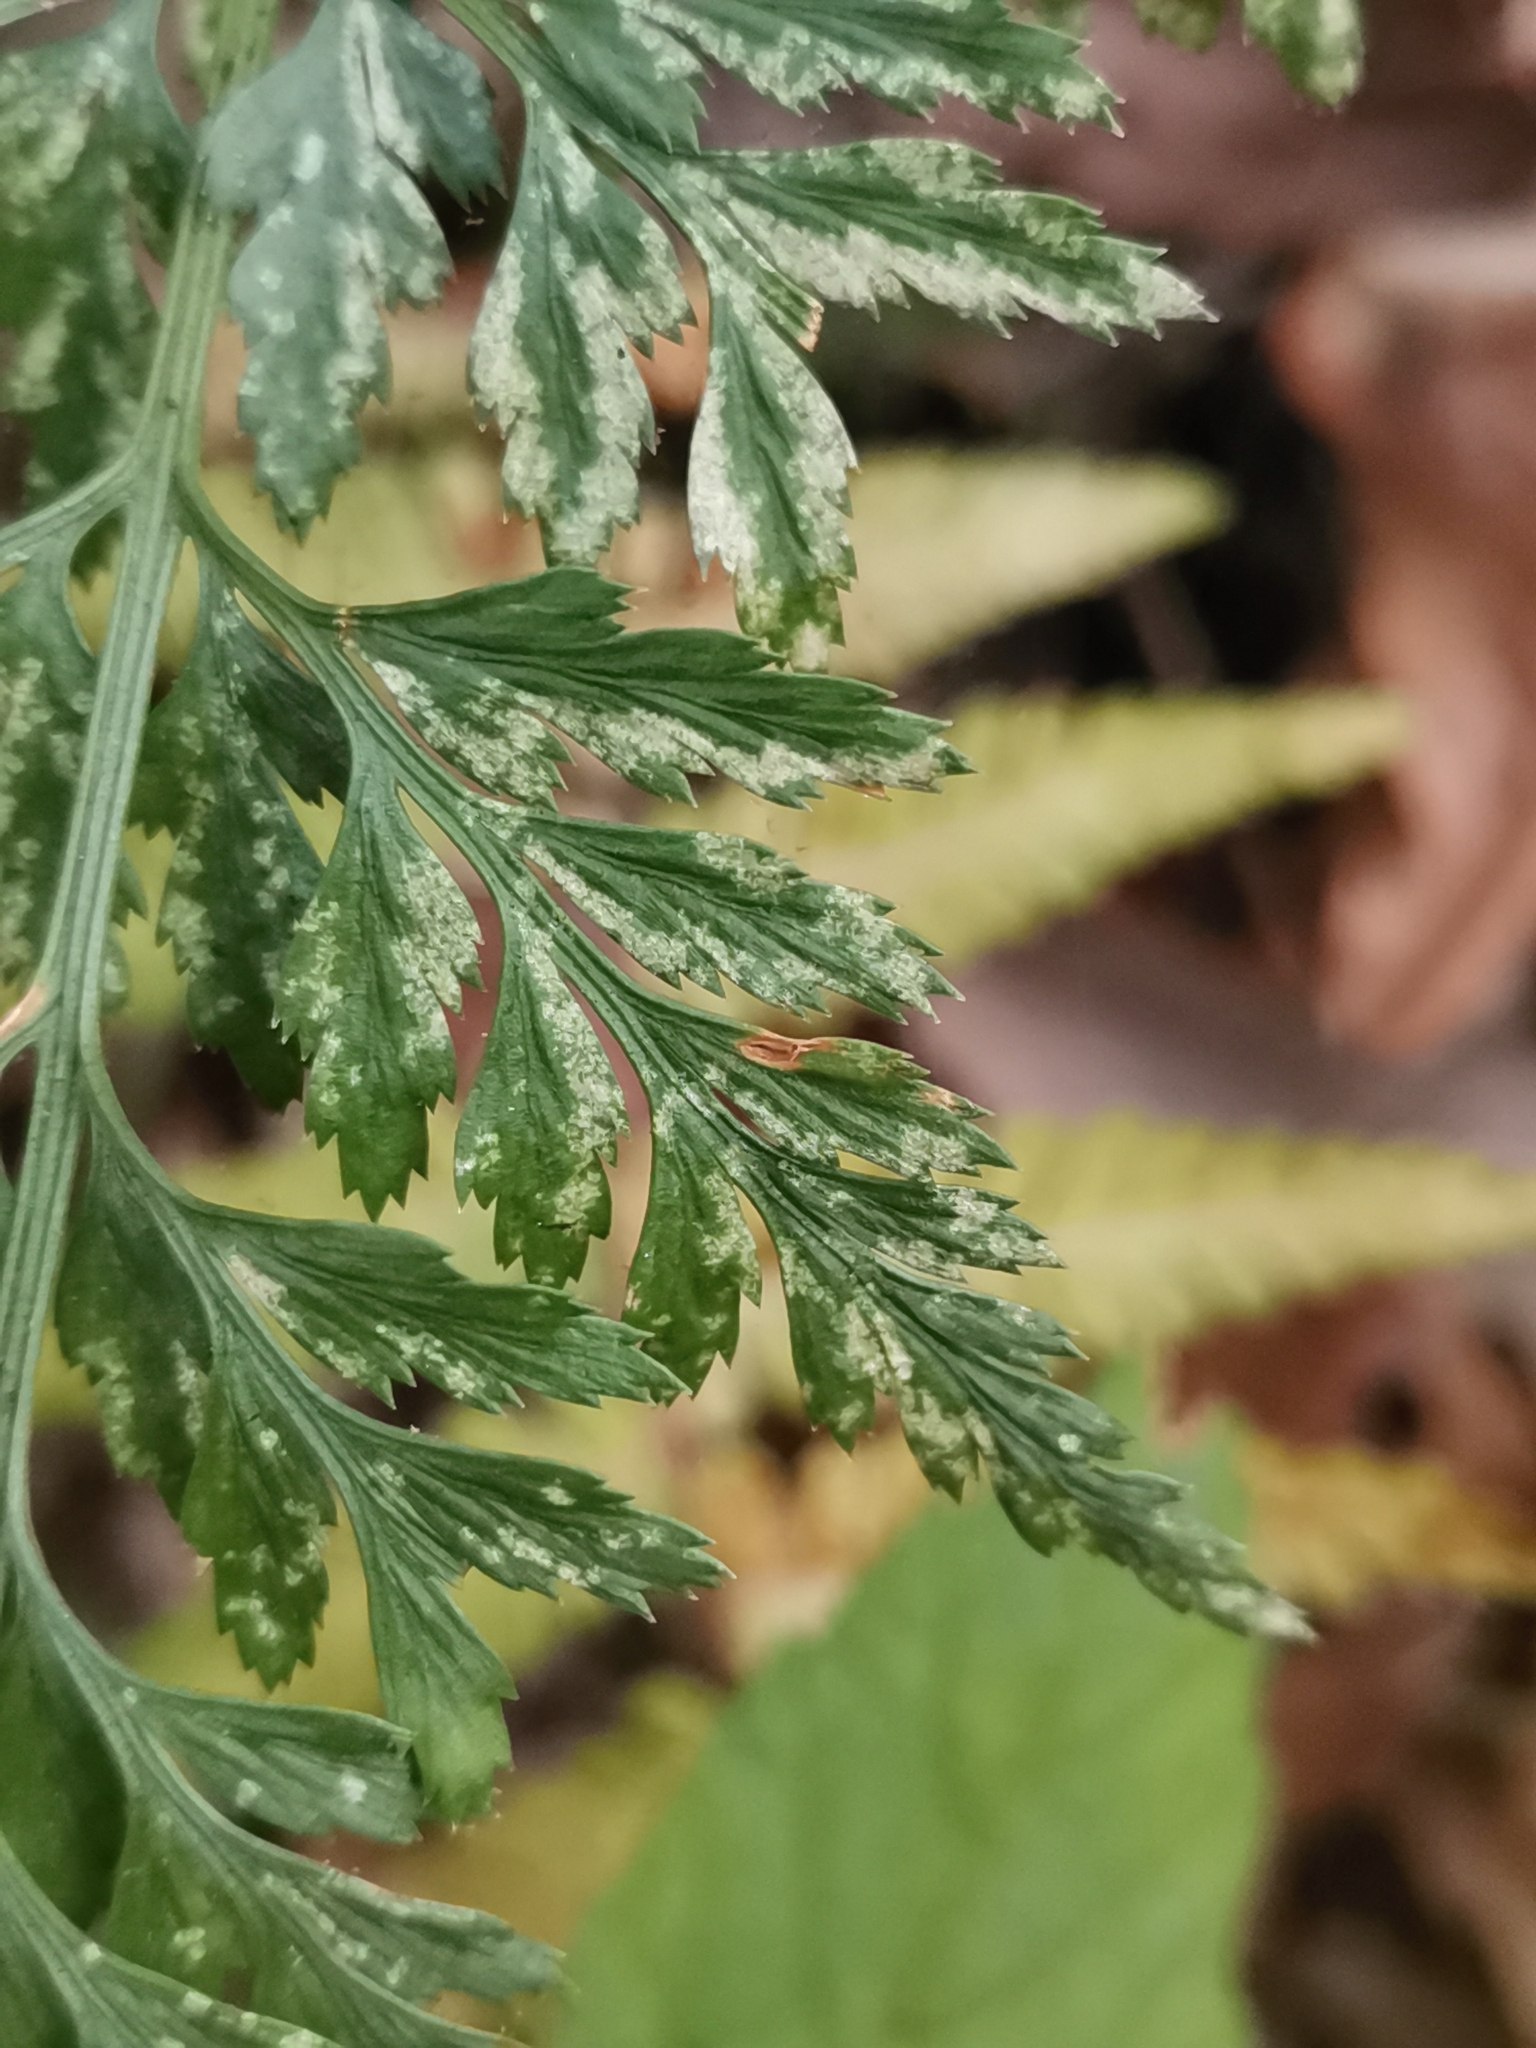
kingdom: Plantae
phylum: Tracheophyta
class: Polypodiopsida
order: Polypodiales
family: Aspleniaceae
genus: Asplenium
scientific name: Asplenium adiantum-nigrum
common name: Black spleenwort
